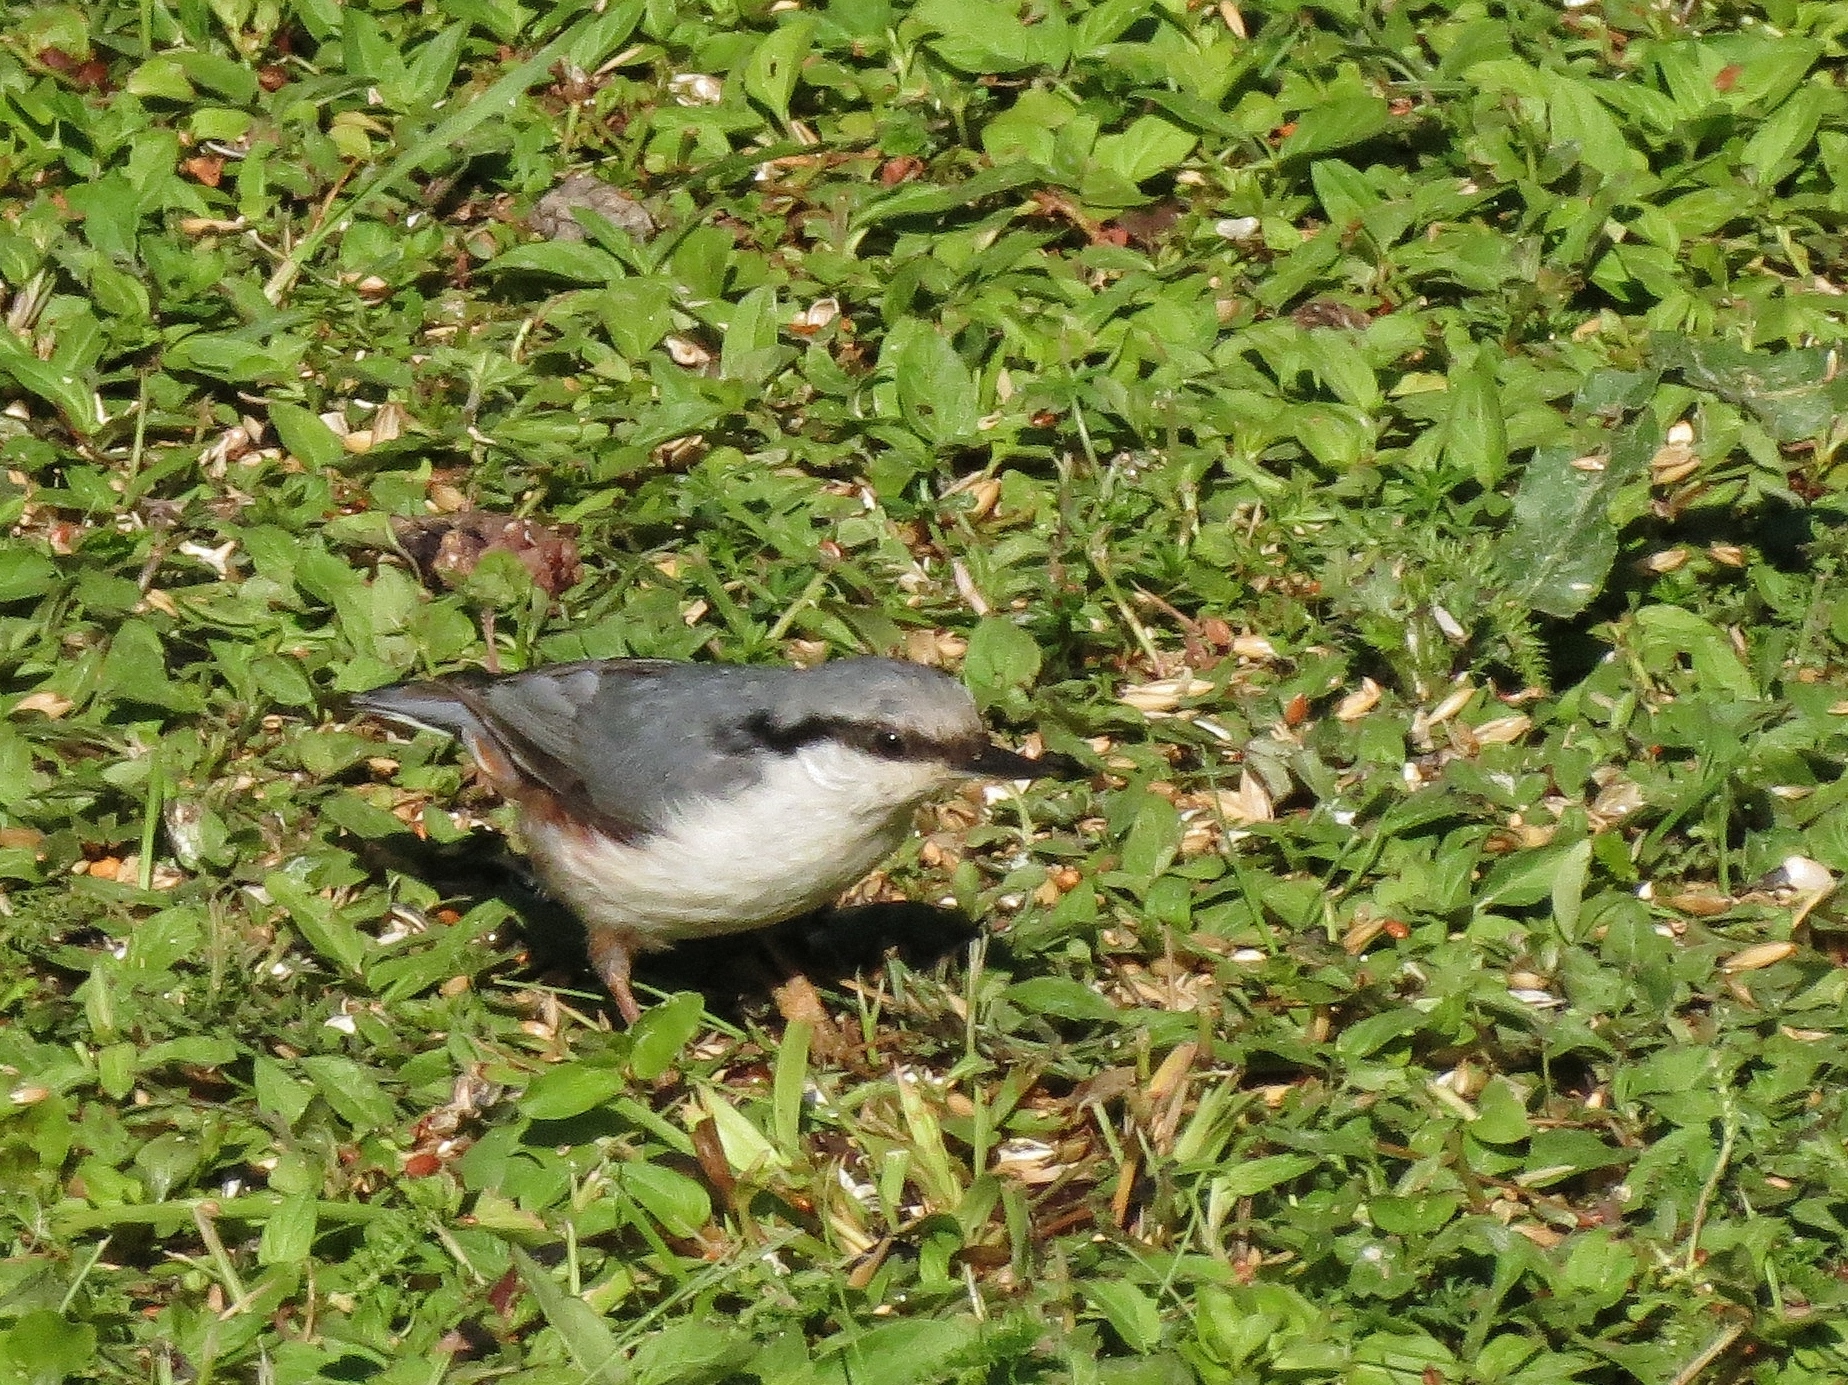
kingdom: Animalia
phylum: Chordata
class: Aves
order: Passeriformes
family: Sittidae
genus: Sitta
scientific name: Sitta europaea
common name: Eurasian nuthatch
